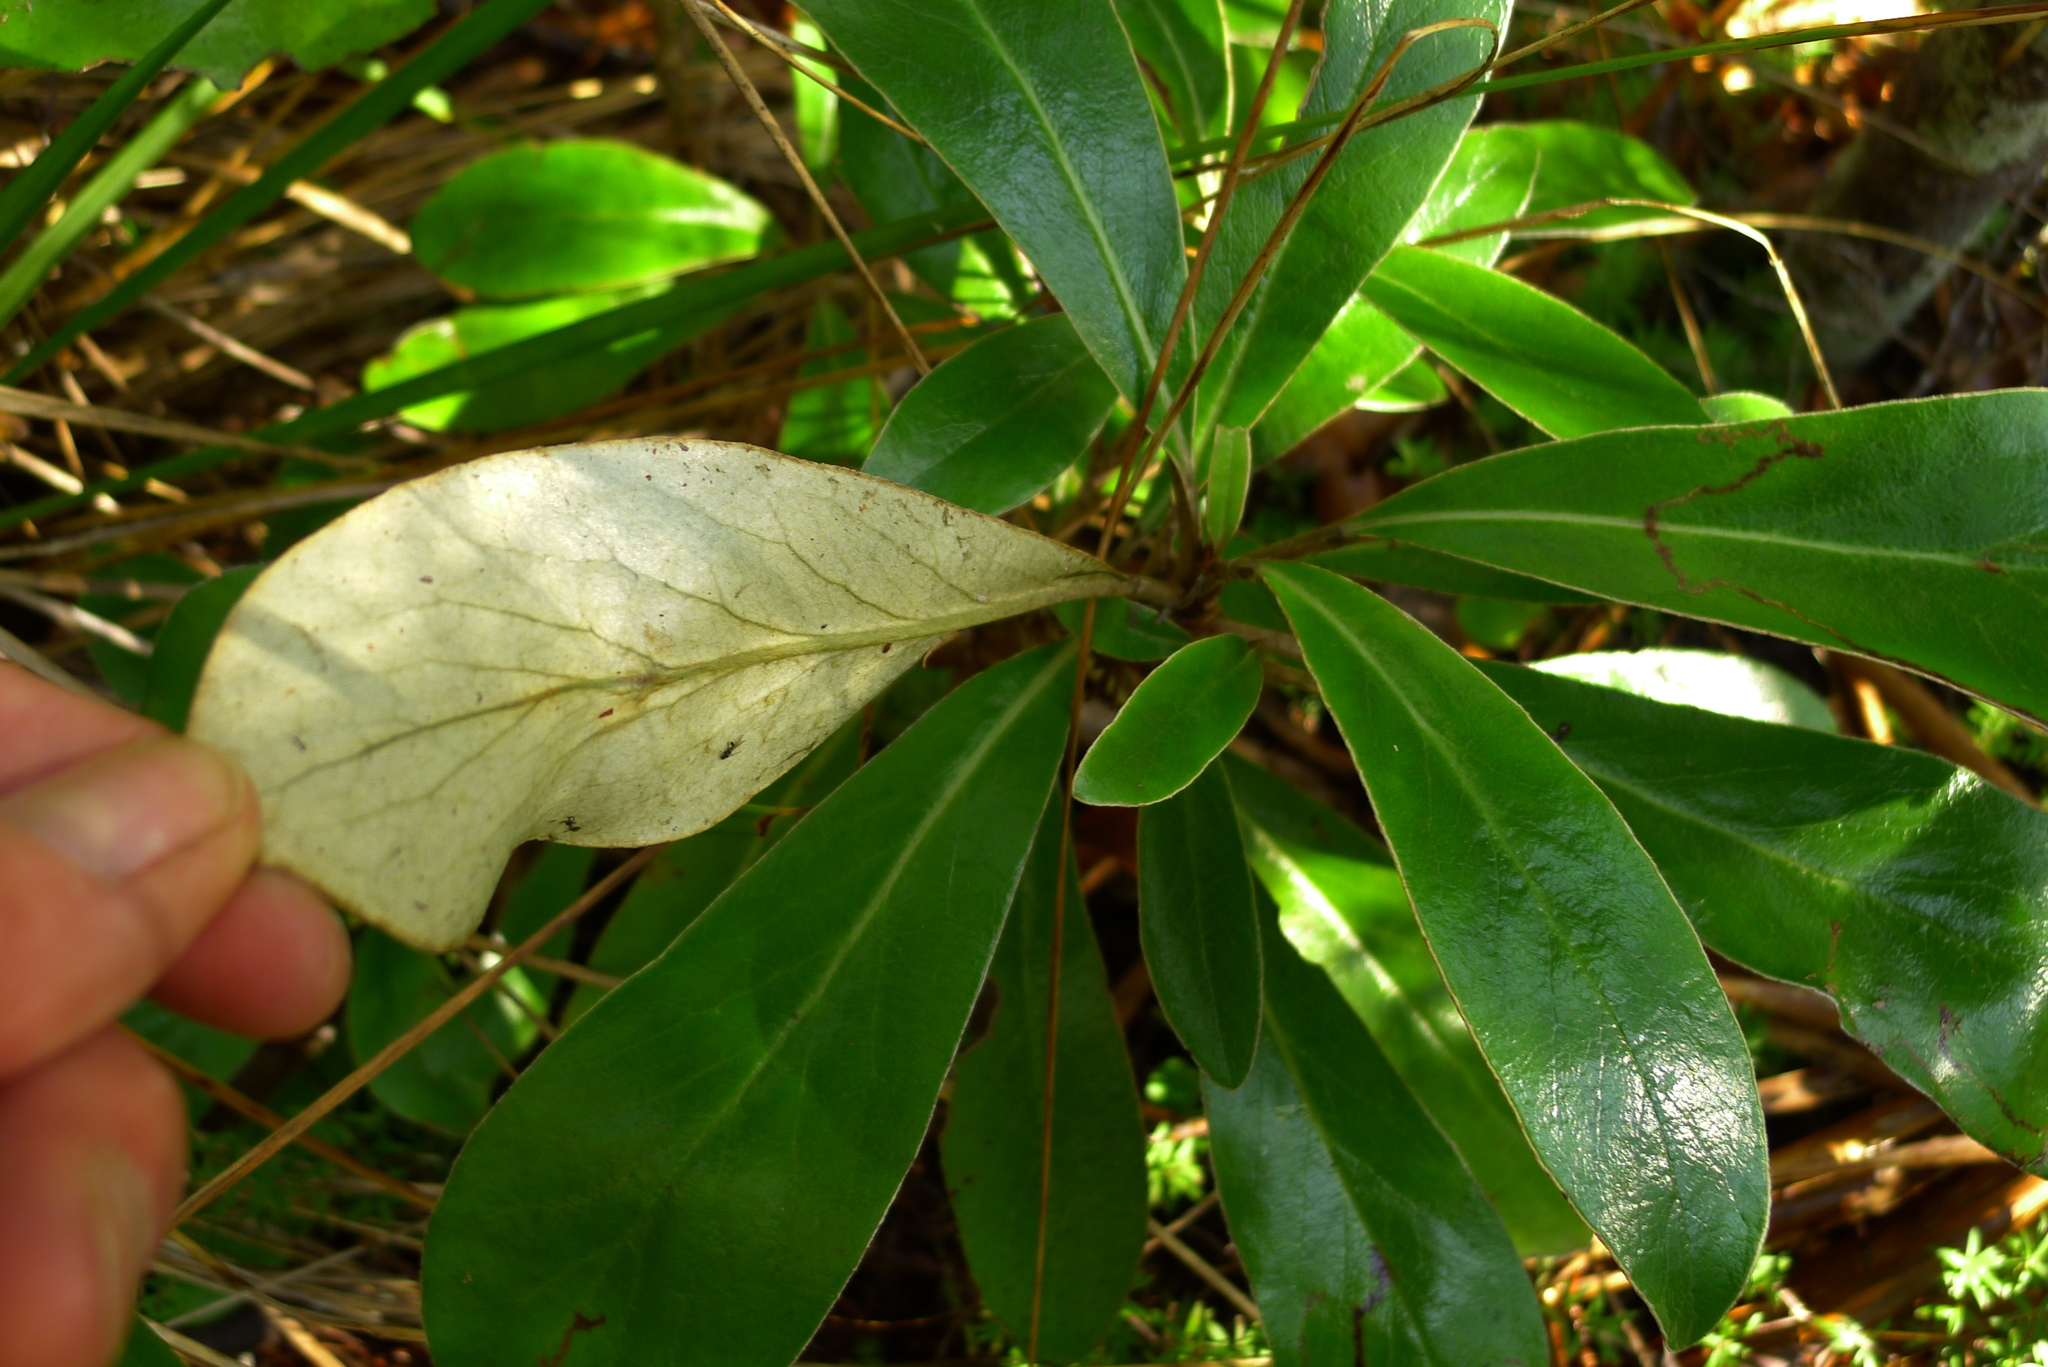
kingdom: Plantae
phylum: Tracheophyta
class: Magnoliopsida
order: Asterales
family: Asteraceae
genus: Brachyglottis
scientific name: Brachyglottis cockaynei
